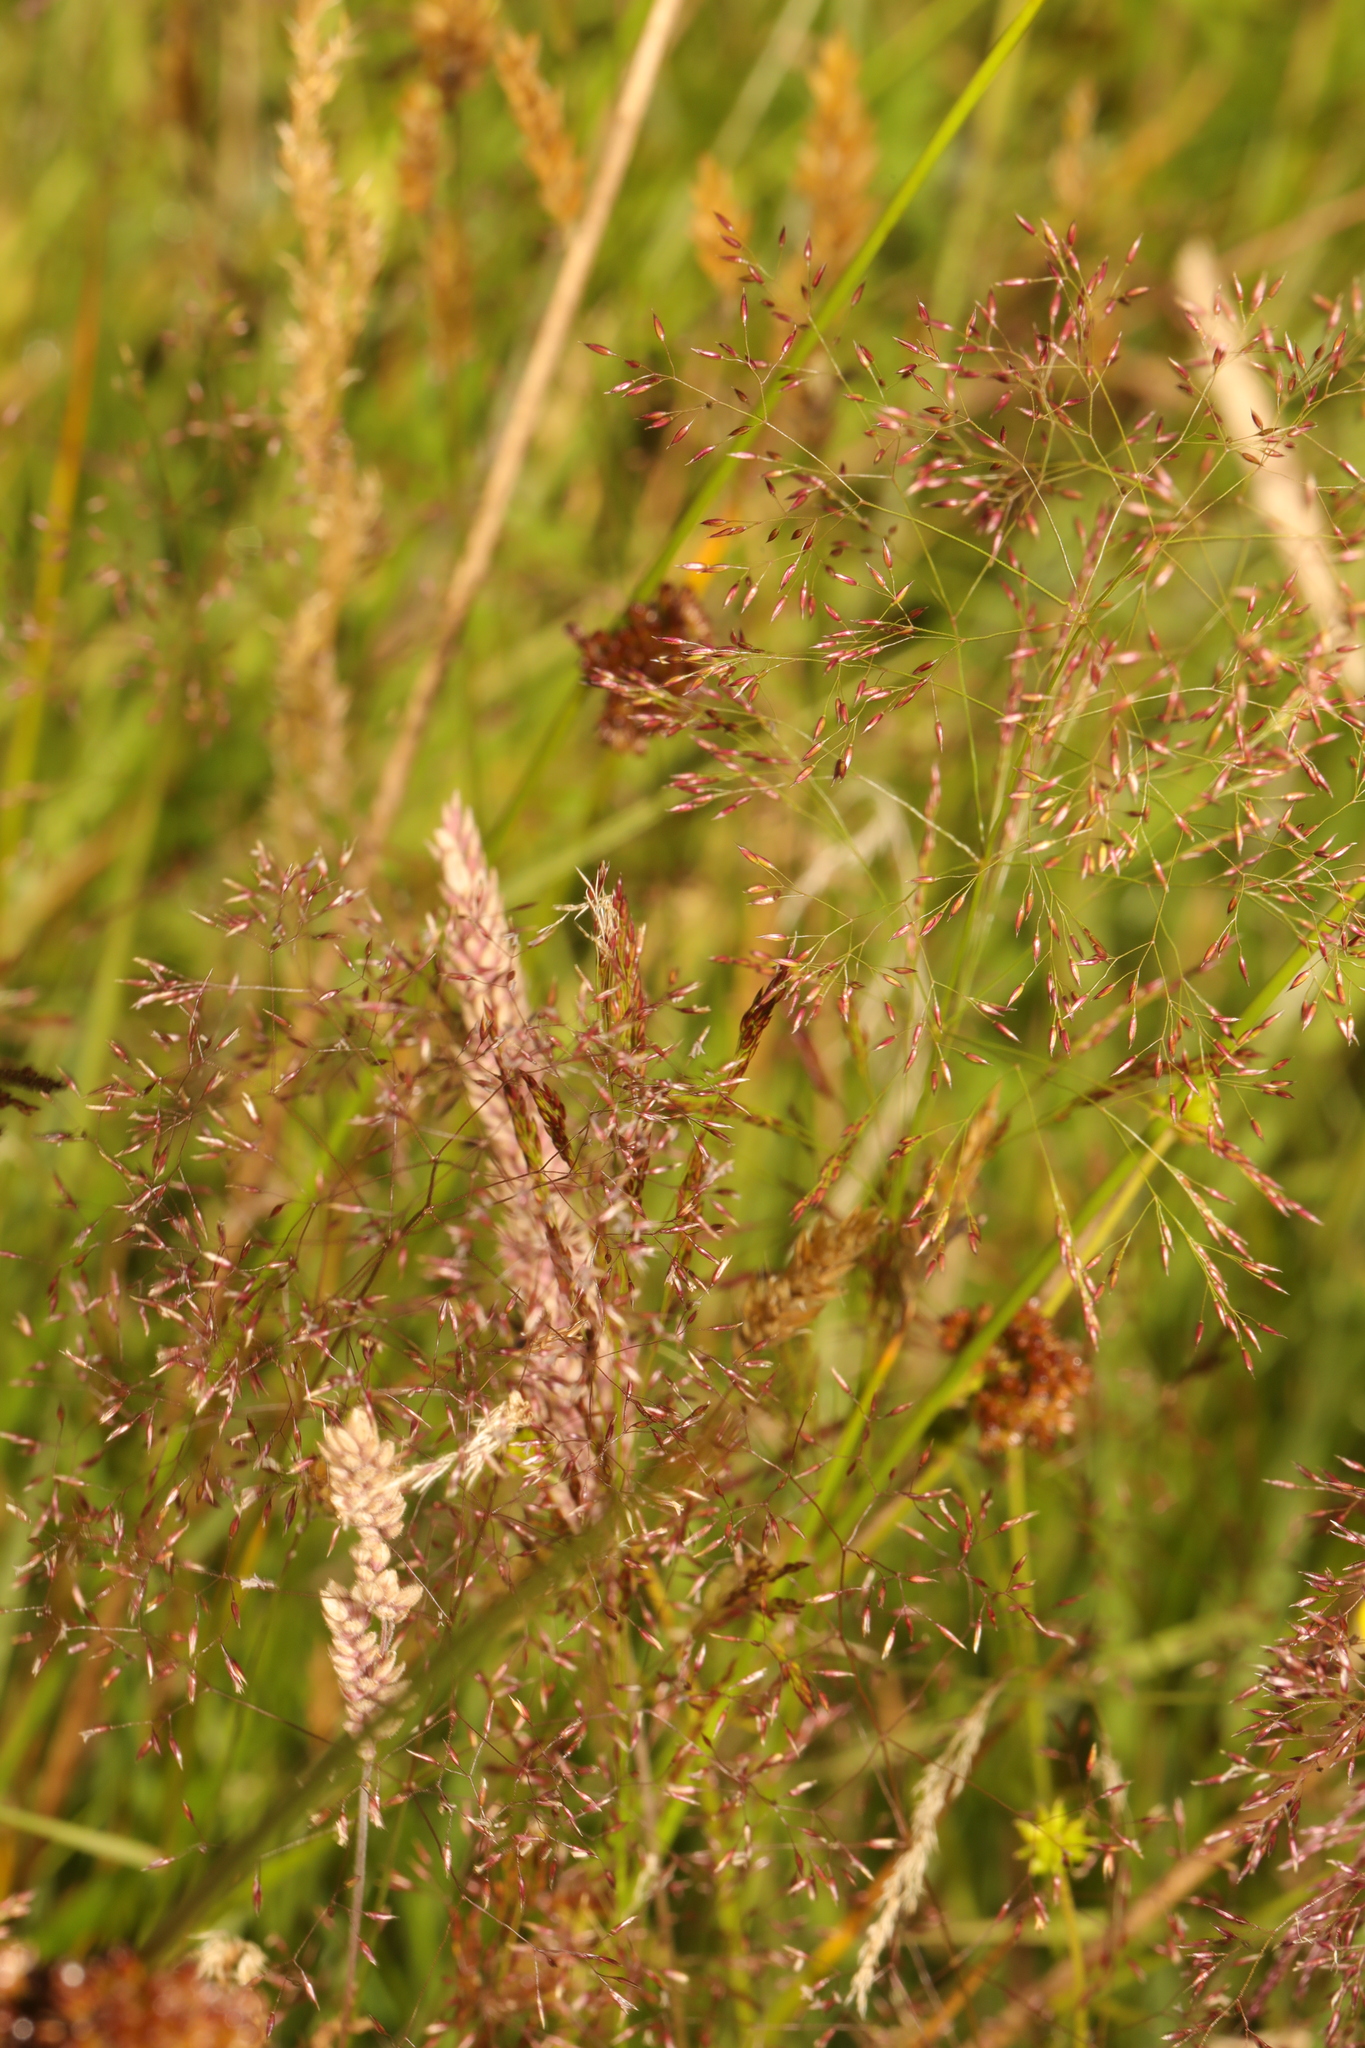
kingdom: Plantae
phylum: Tracheophyta
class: Liliopsida
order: Poales
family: Poaceae
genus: Agrostis
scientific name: Agrostis capillaris
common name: Colonial bentgrass
